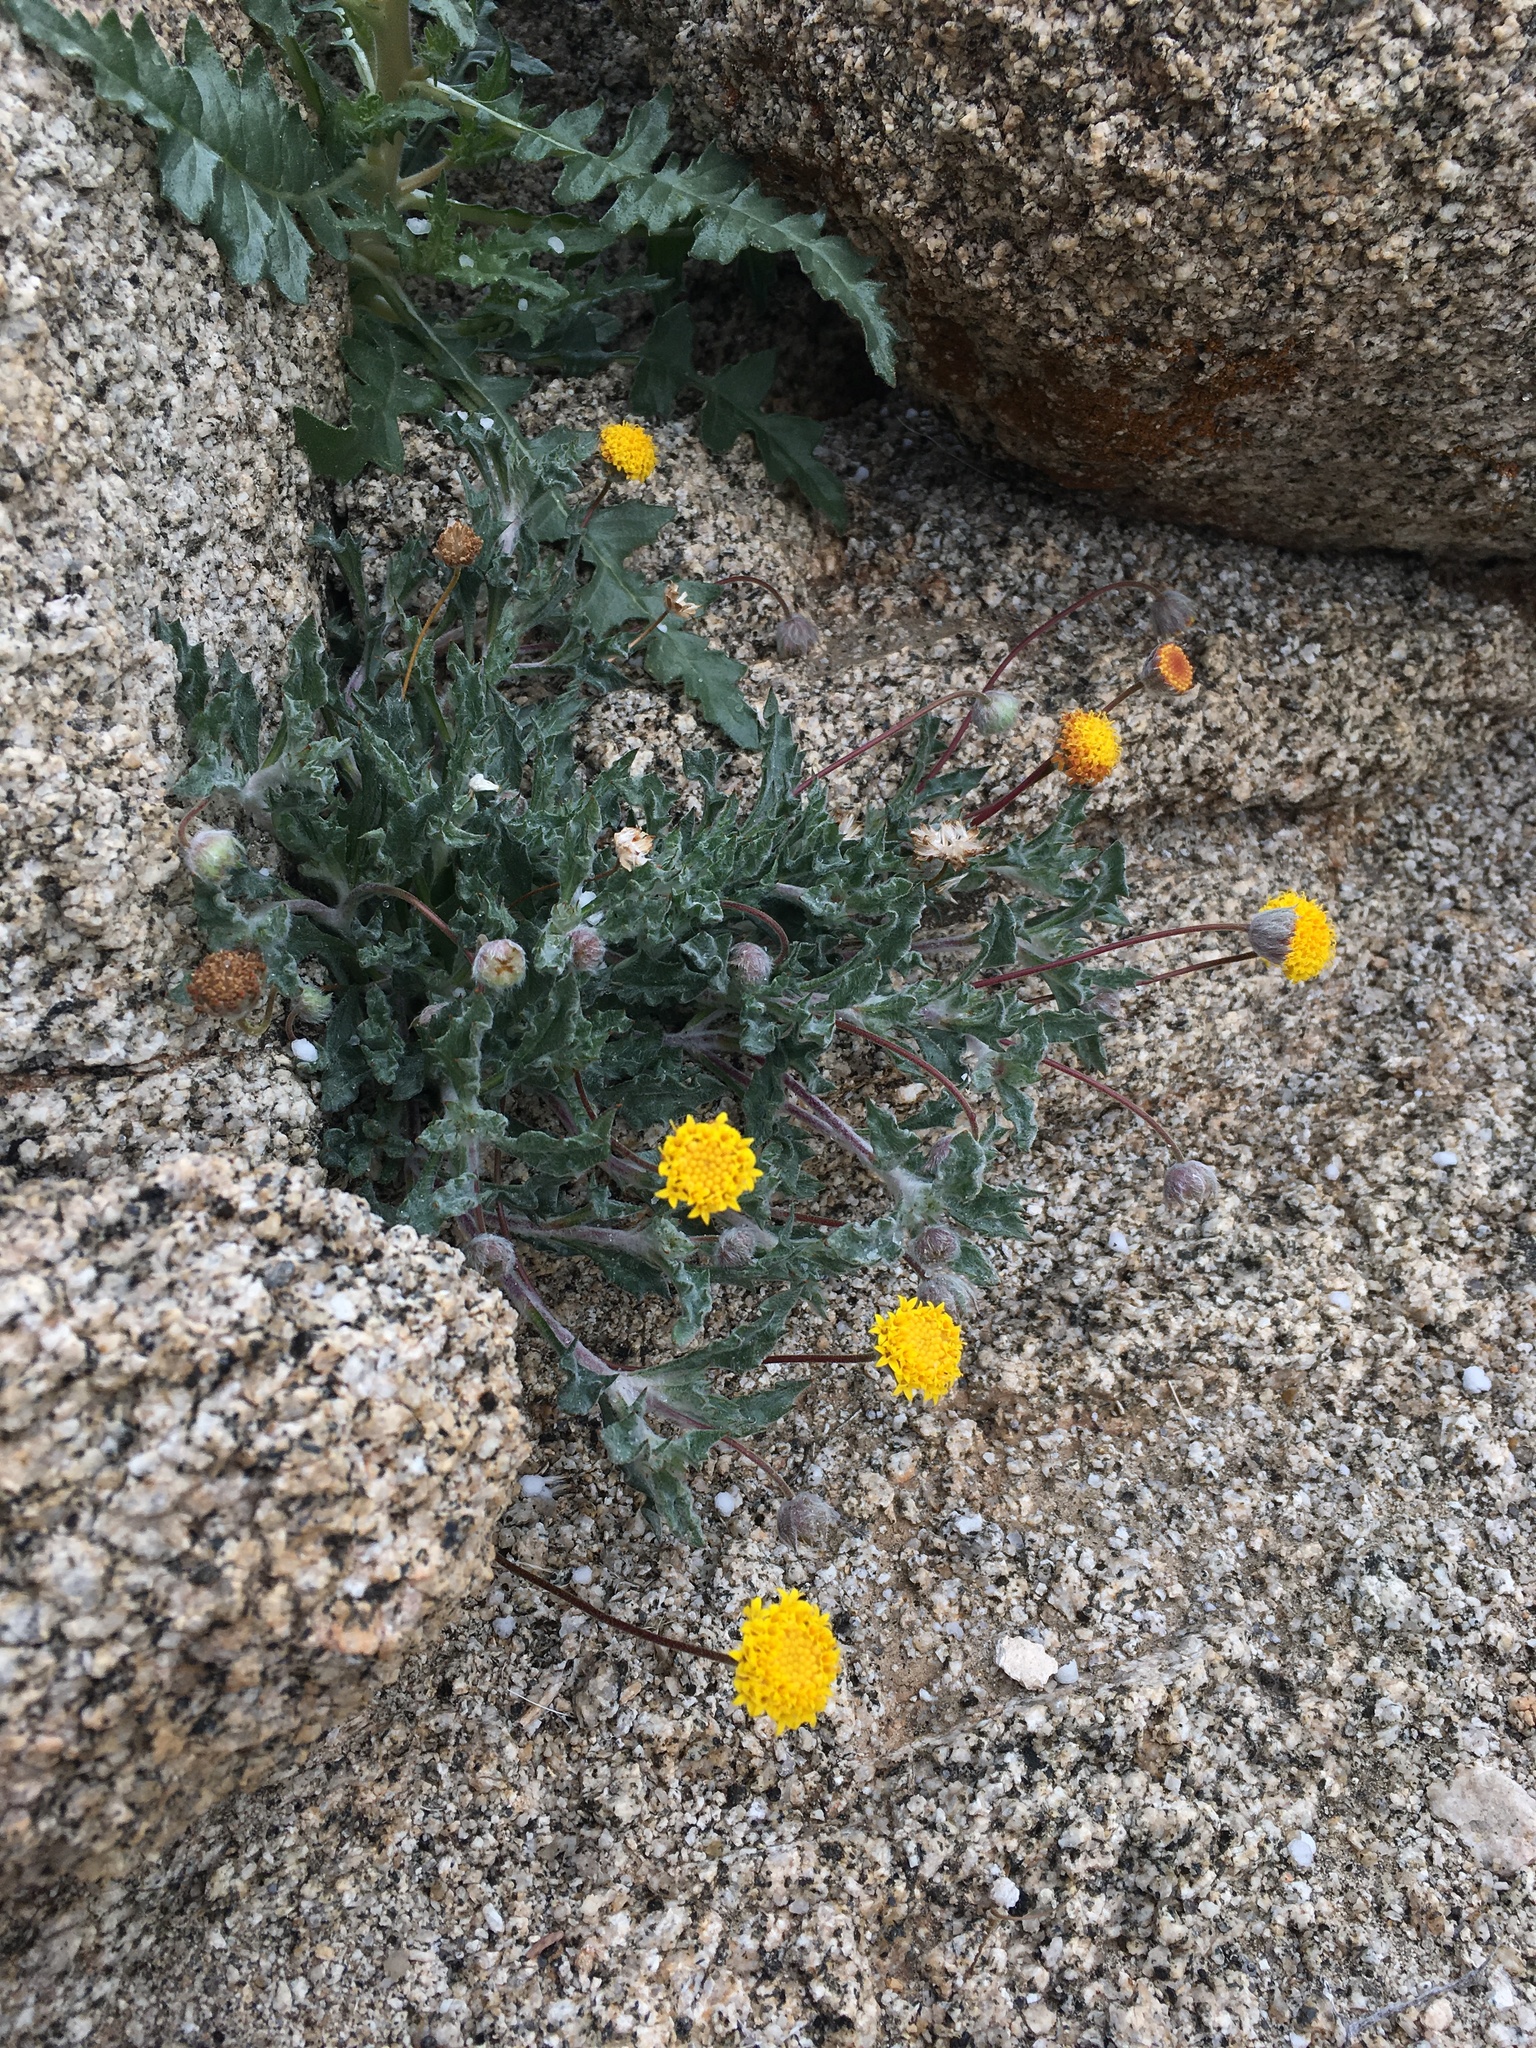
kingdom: Plantae
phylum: Tracheophyta
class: Magnoliopsida
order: Asterales
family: Asteraceae
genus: Trichoptilium
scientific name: Trichoptilium incisum
